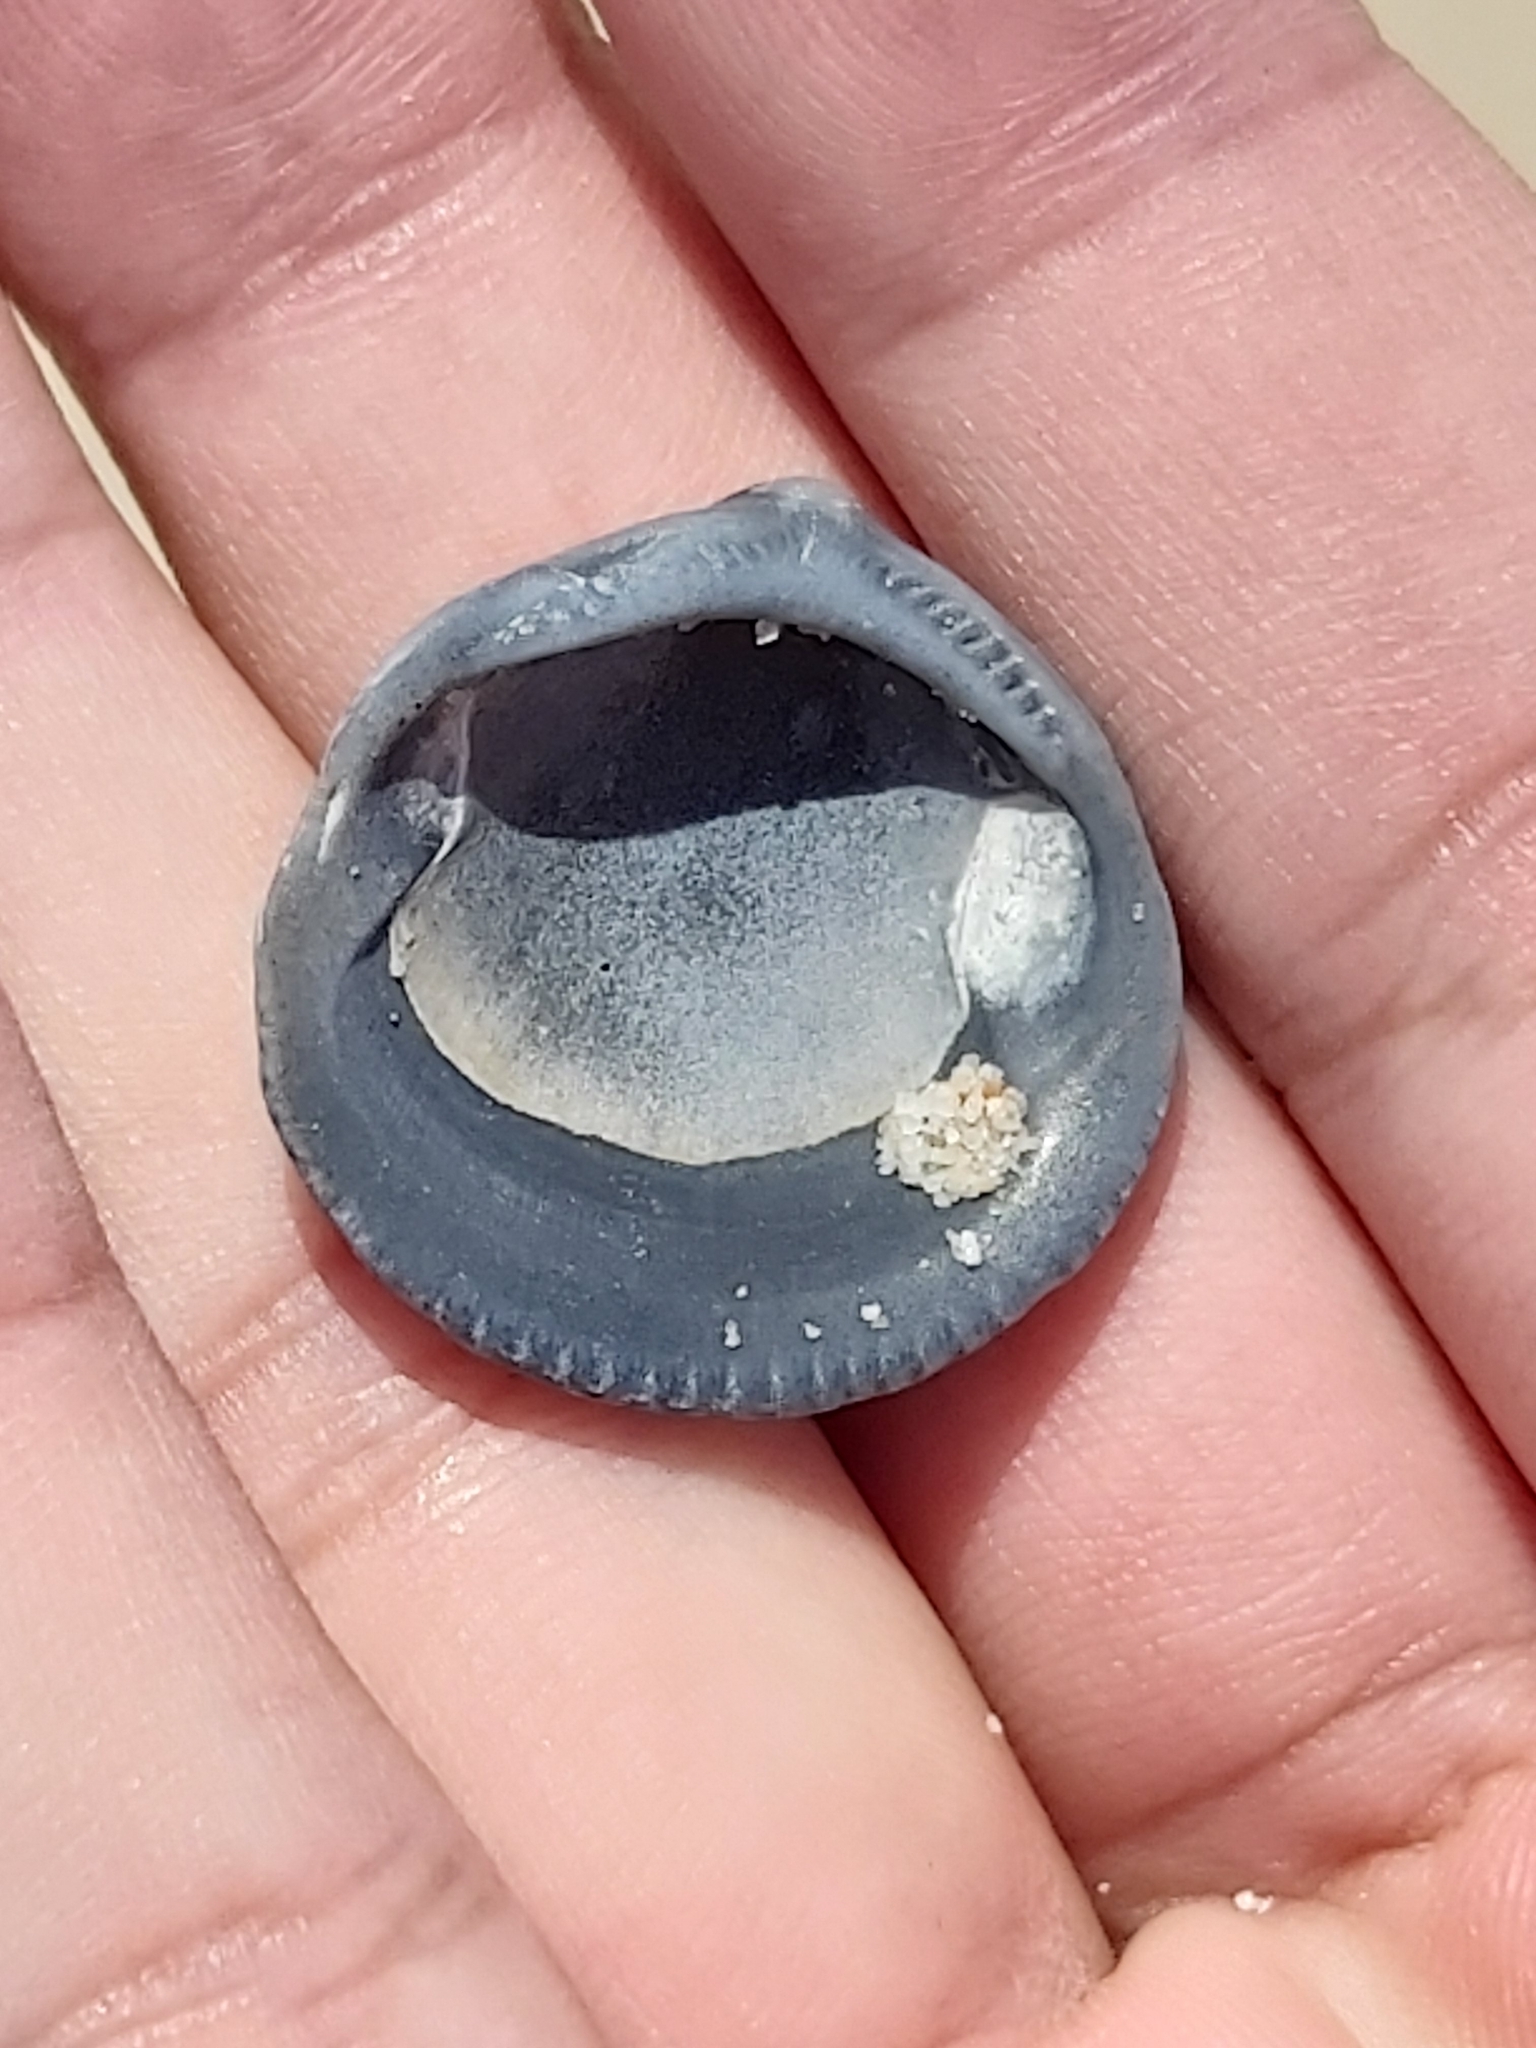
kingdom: Animalia
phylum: Mollusca
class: Bivalvia
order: Arcida
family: Glycymerididae
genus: Glycymeris
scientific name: Glycymeris grayana
